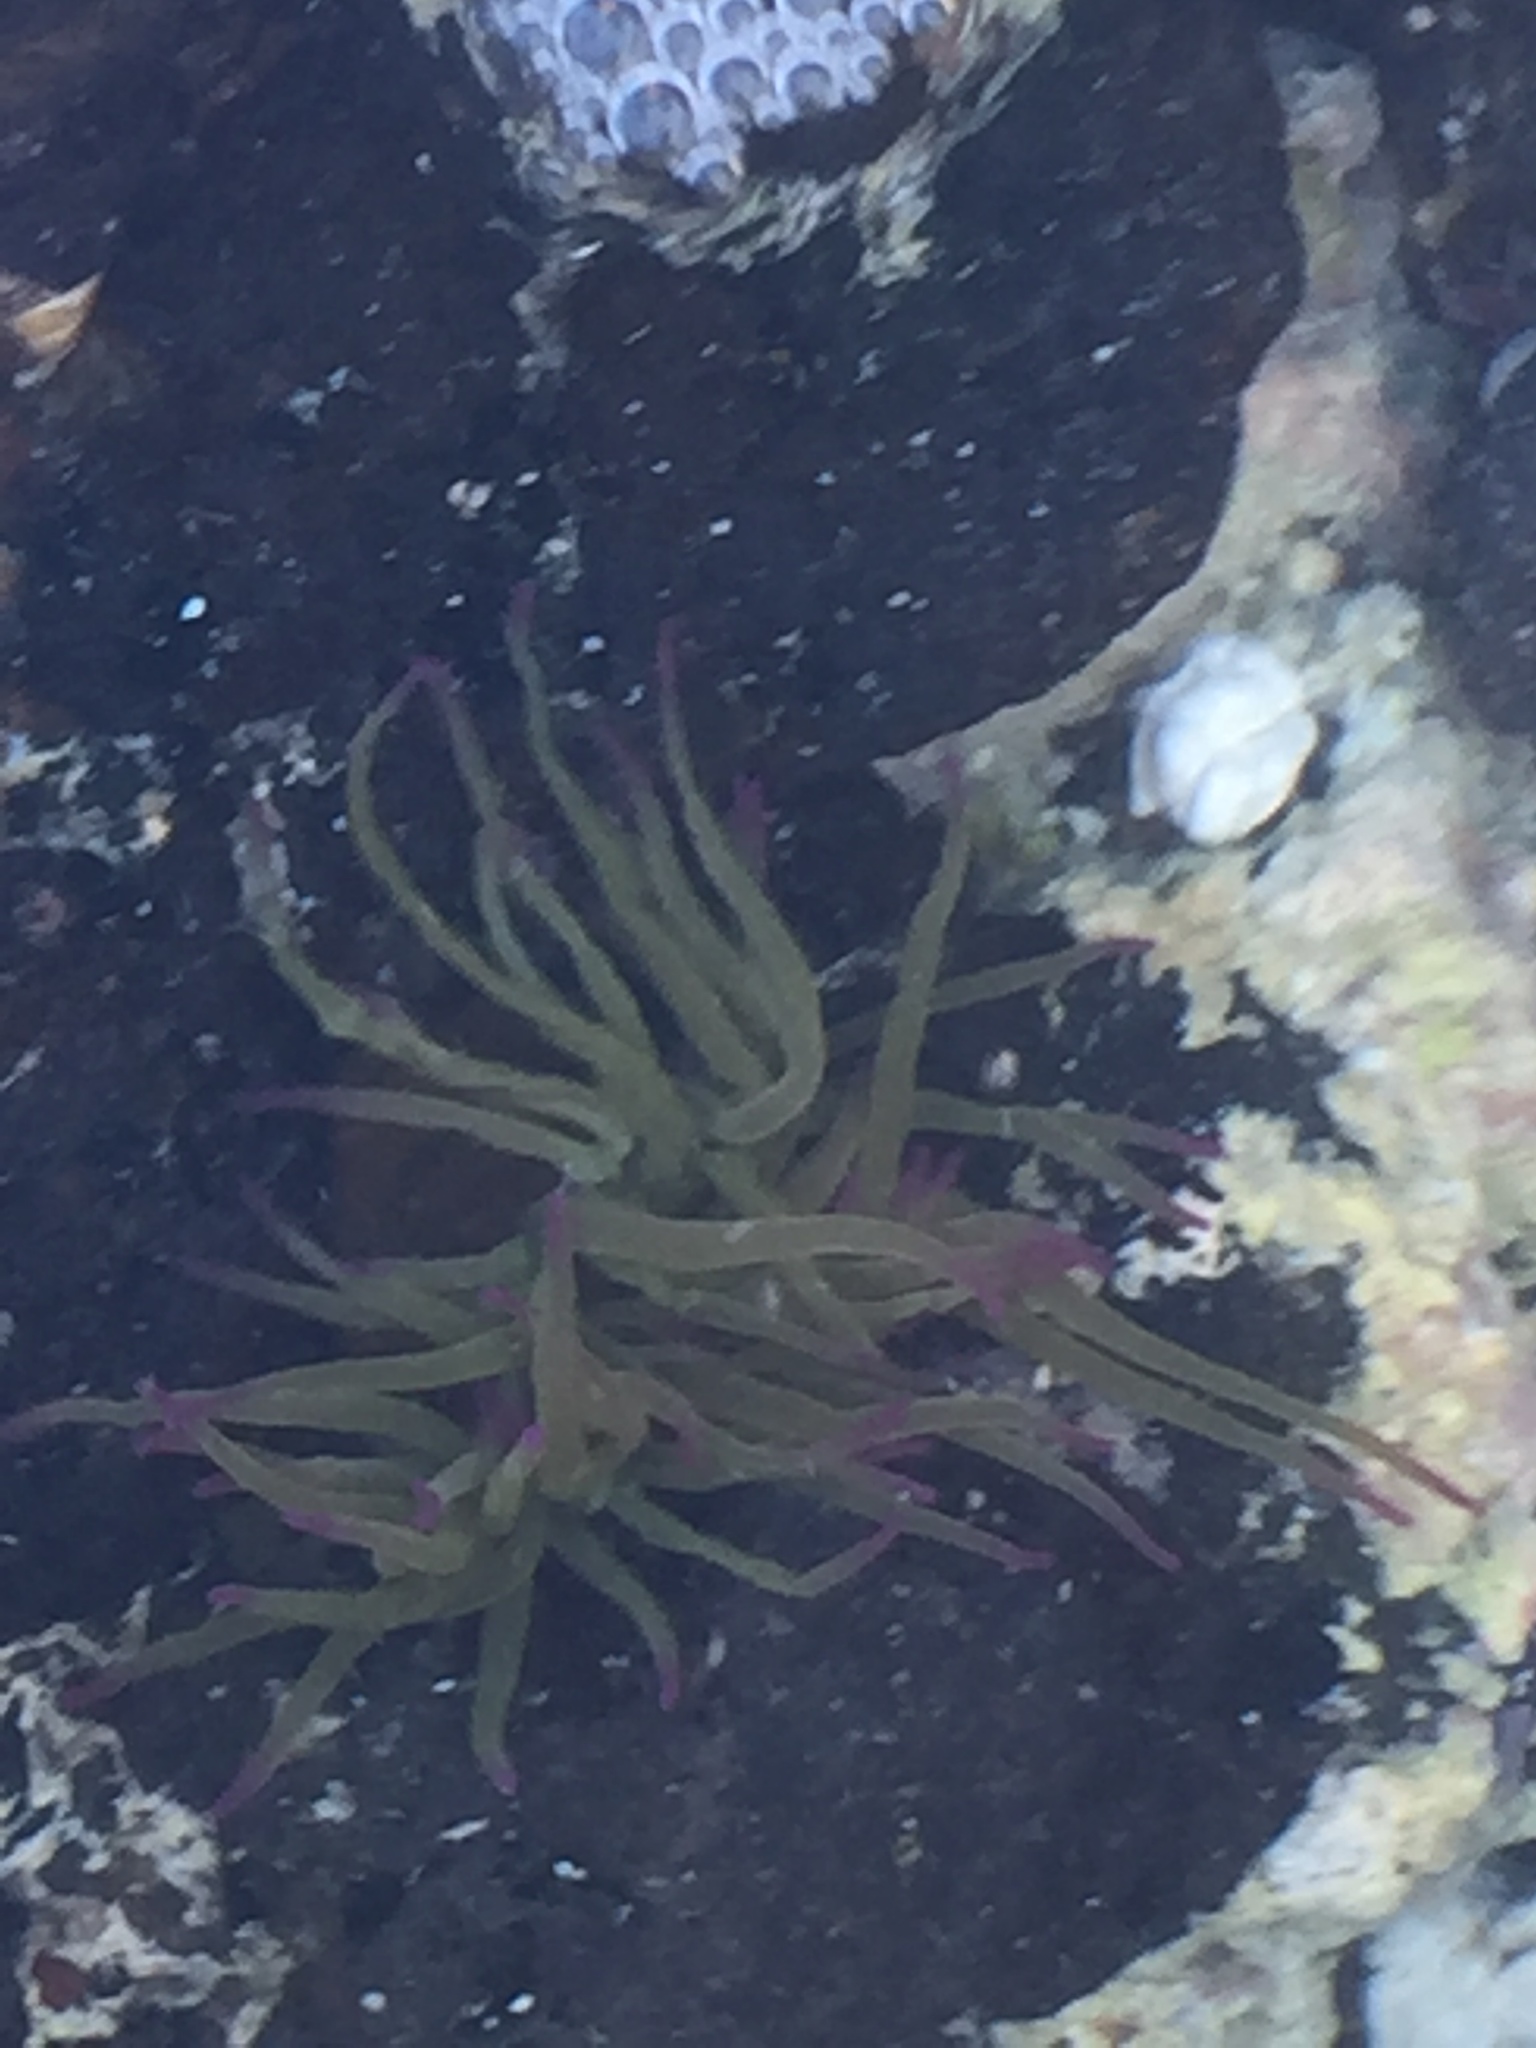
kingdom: Animalia
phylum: Cnidaria
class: Anthozoa
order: Actiniaria
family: Actiniidae
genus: Anemonia
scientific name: Anemonia viridis
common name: Snakelocks anemone
